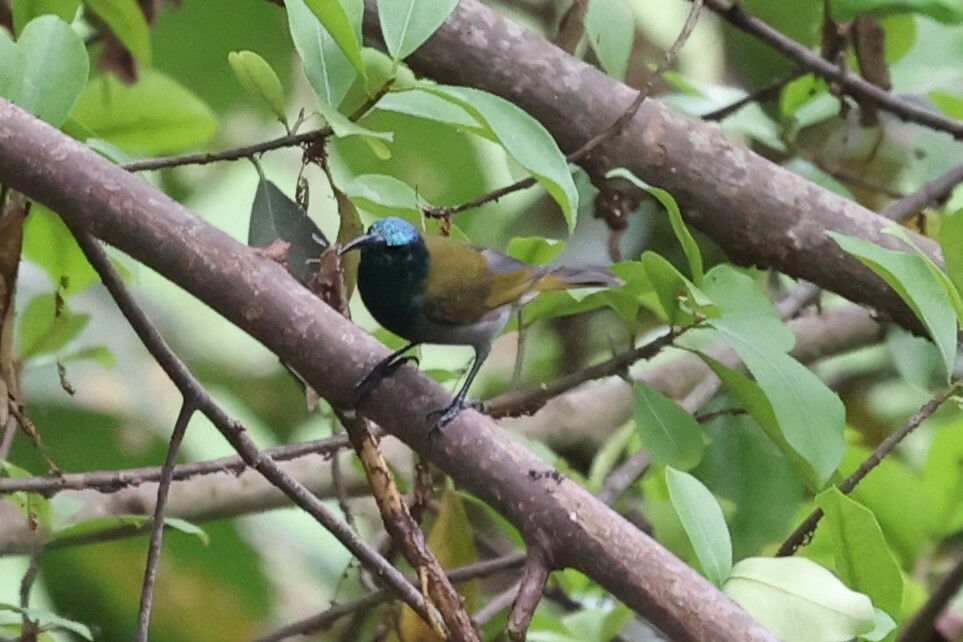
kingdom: Animalia
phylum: Chordata
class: Aves
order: Passeriformes
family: Nectariniidae
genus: Cyanomitra
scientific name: Cyanomitra verticalis
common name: Green-headed sunbird
